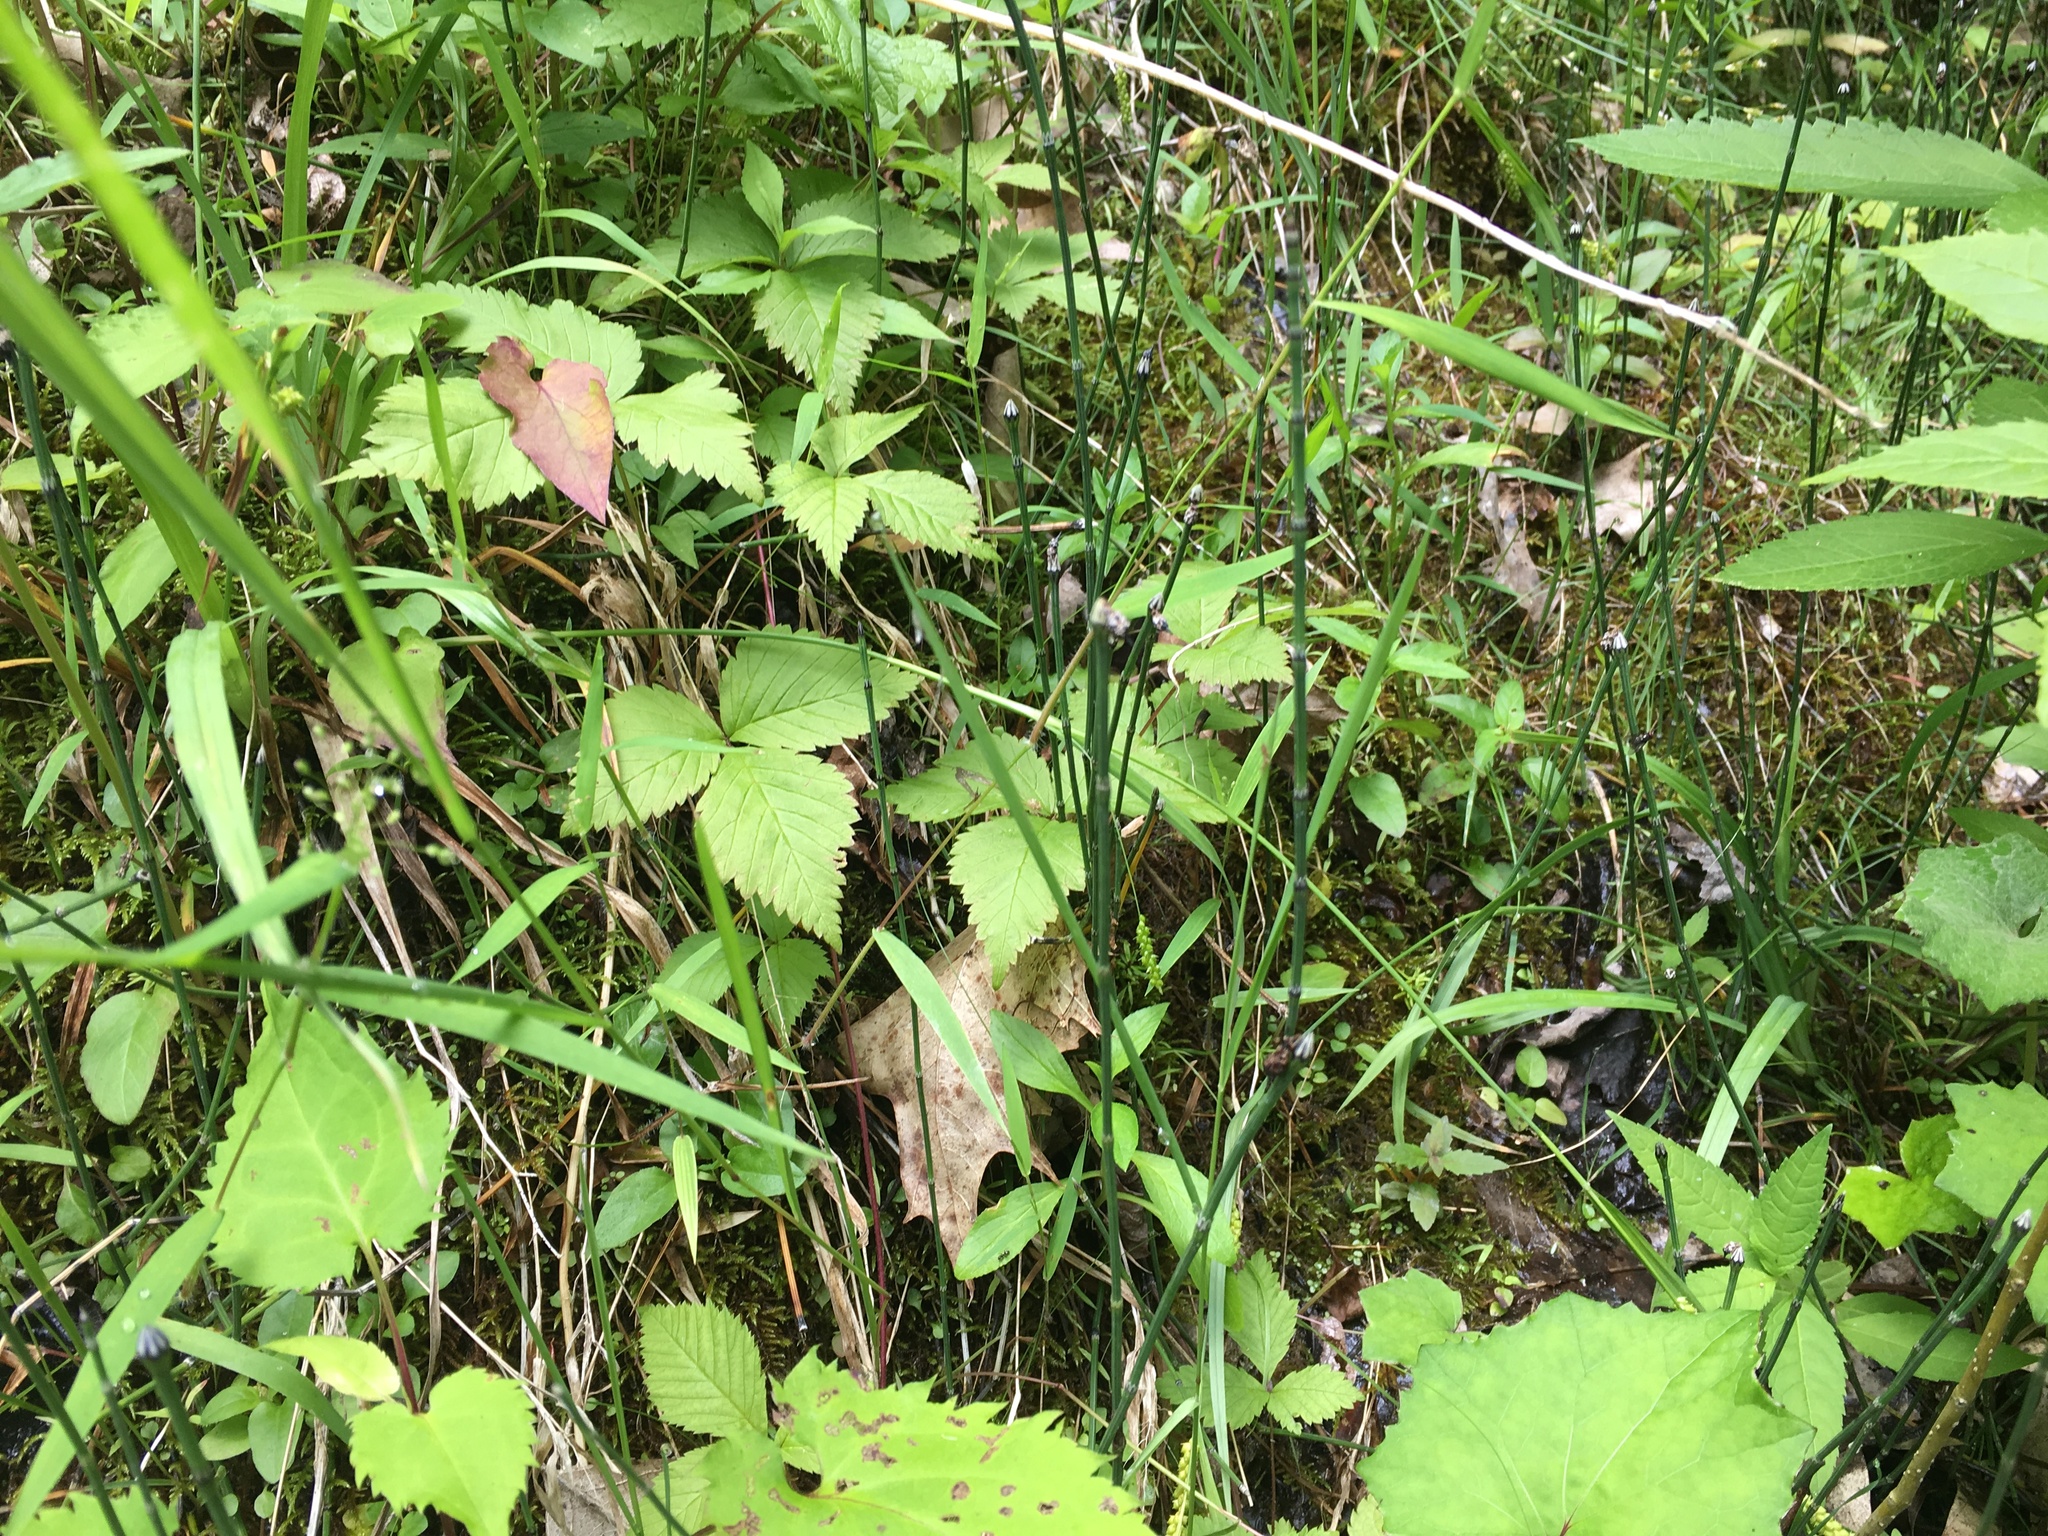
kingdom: Plantae
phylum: Tracheophyta
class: Polypodiopsida
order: Equisetales
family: Equisetaceae
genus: Equisetum
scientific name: Equisetum variegatum
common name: Variegated horsetail
